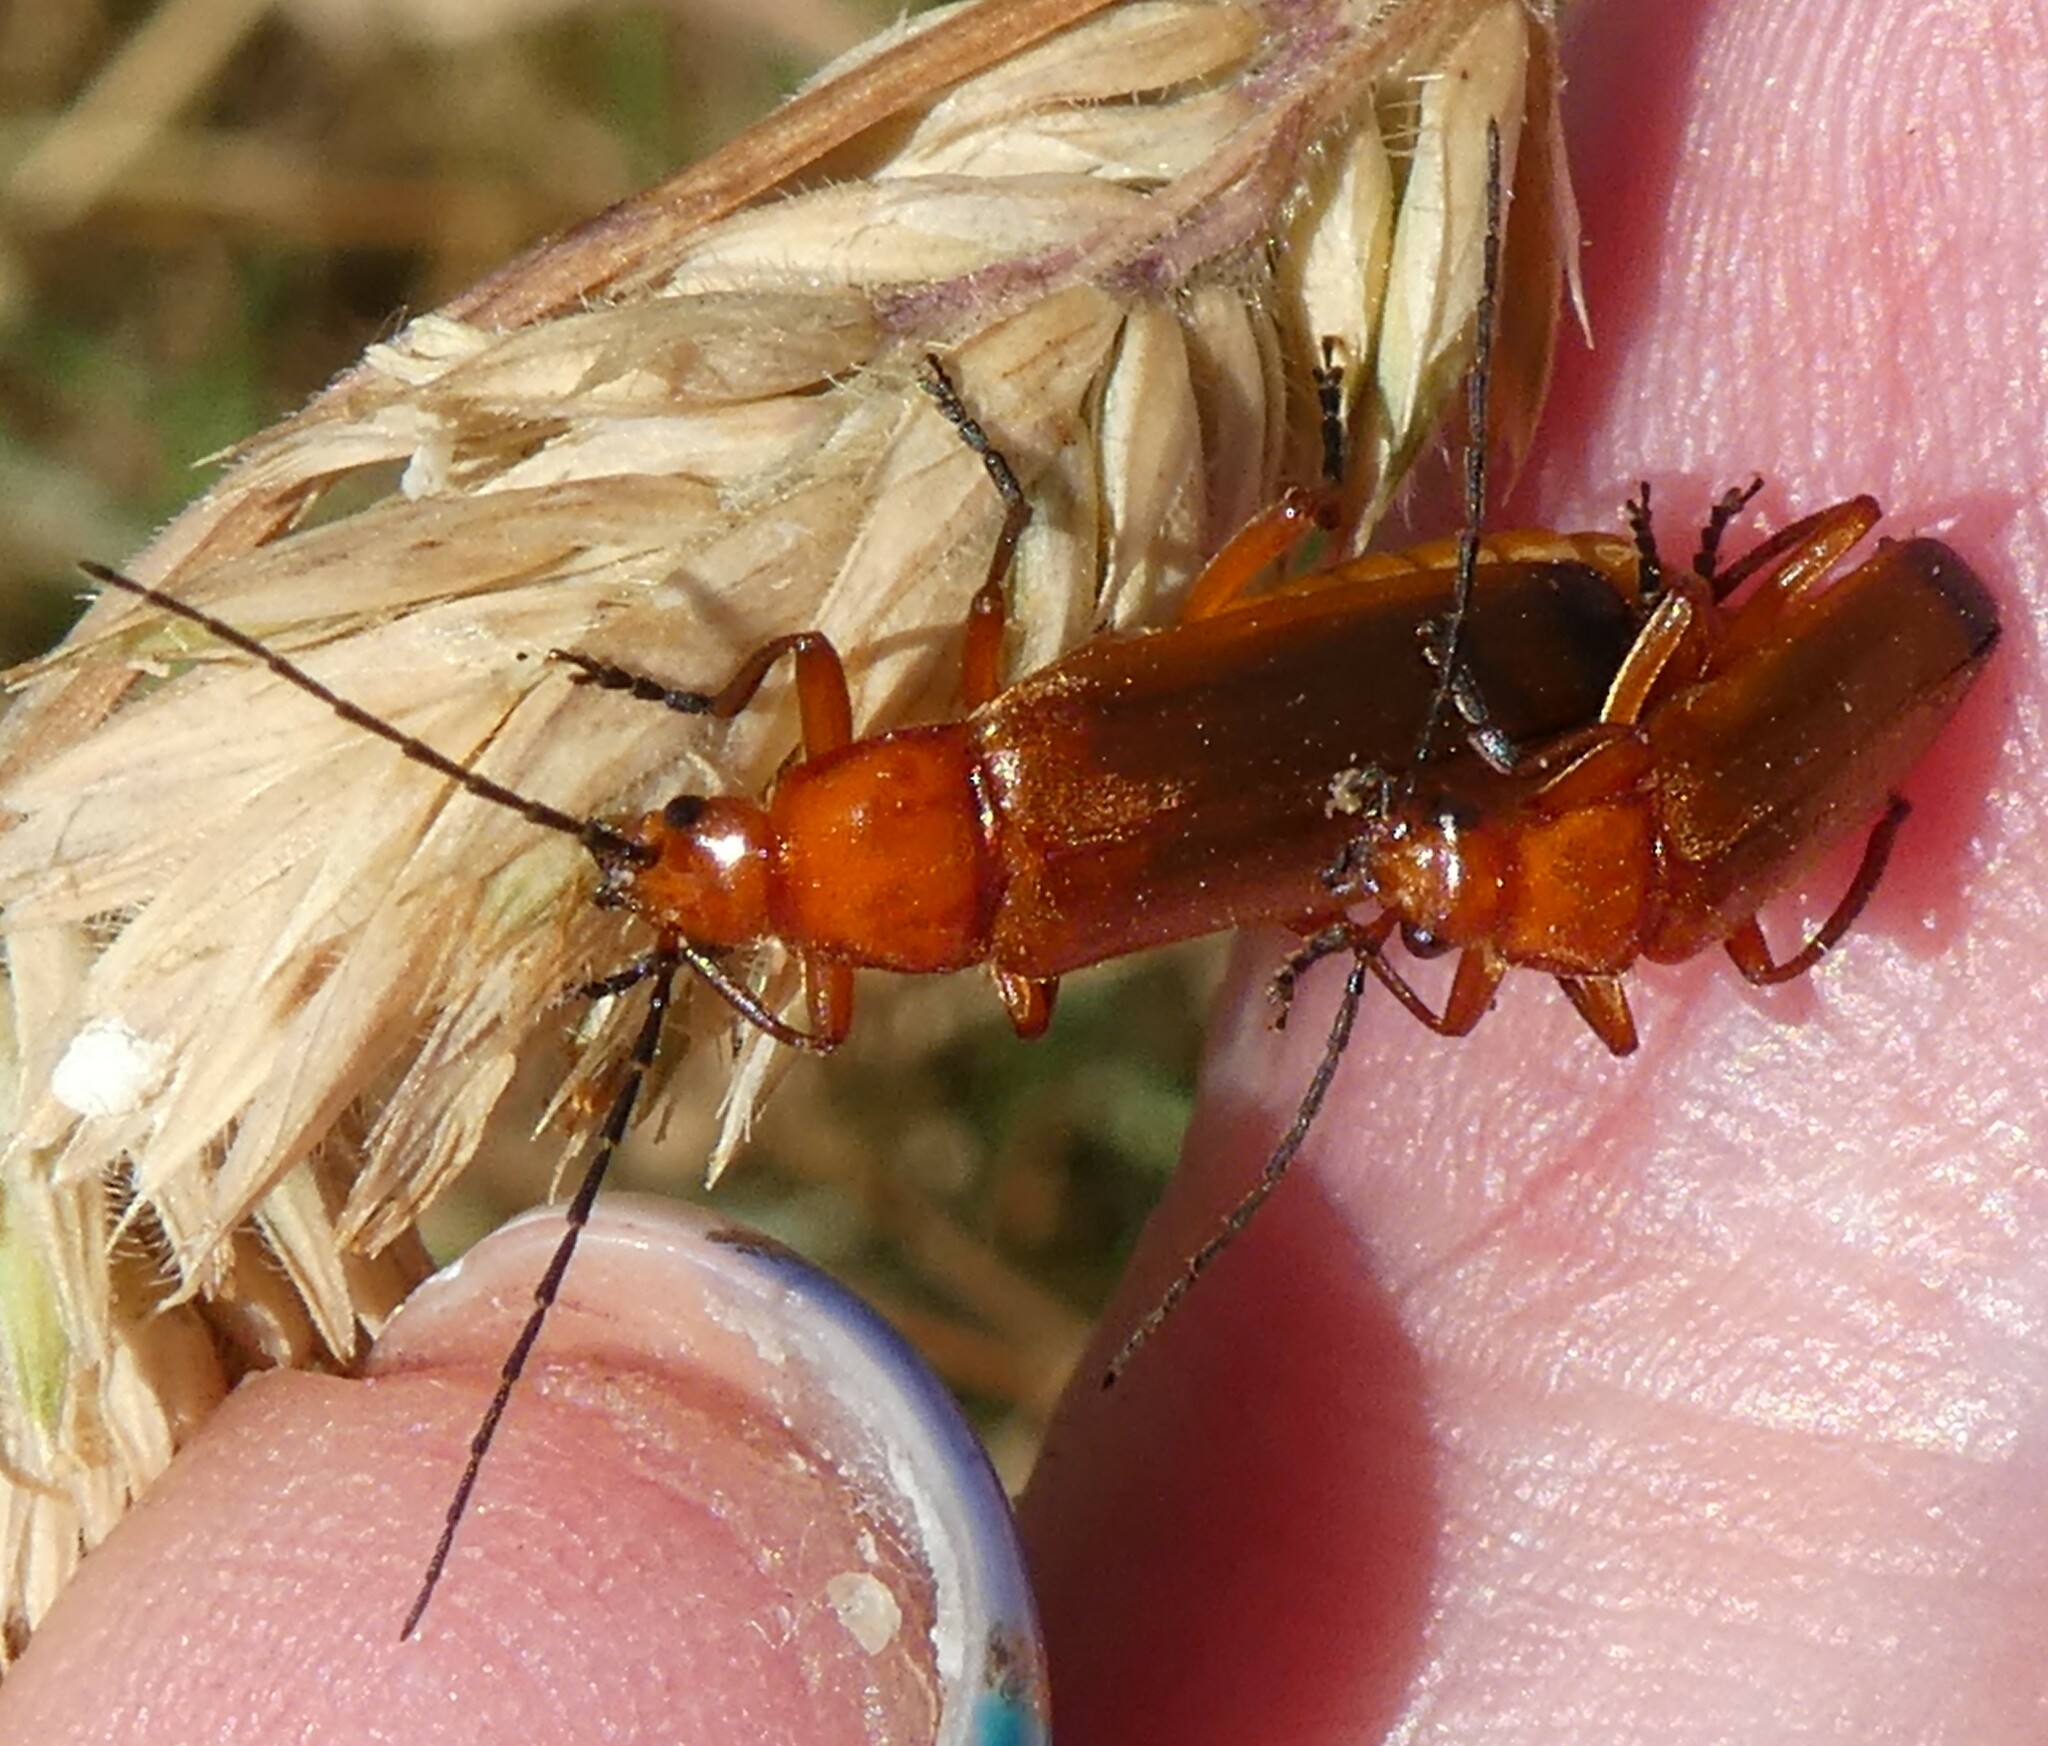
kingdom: Animalia
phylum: Arthropoda
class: Insecta
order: Coleoptera
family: Cantharidae
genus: Rhagonycha
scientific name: Rhagonycha fulva
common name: Common red soldier beetle
